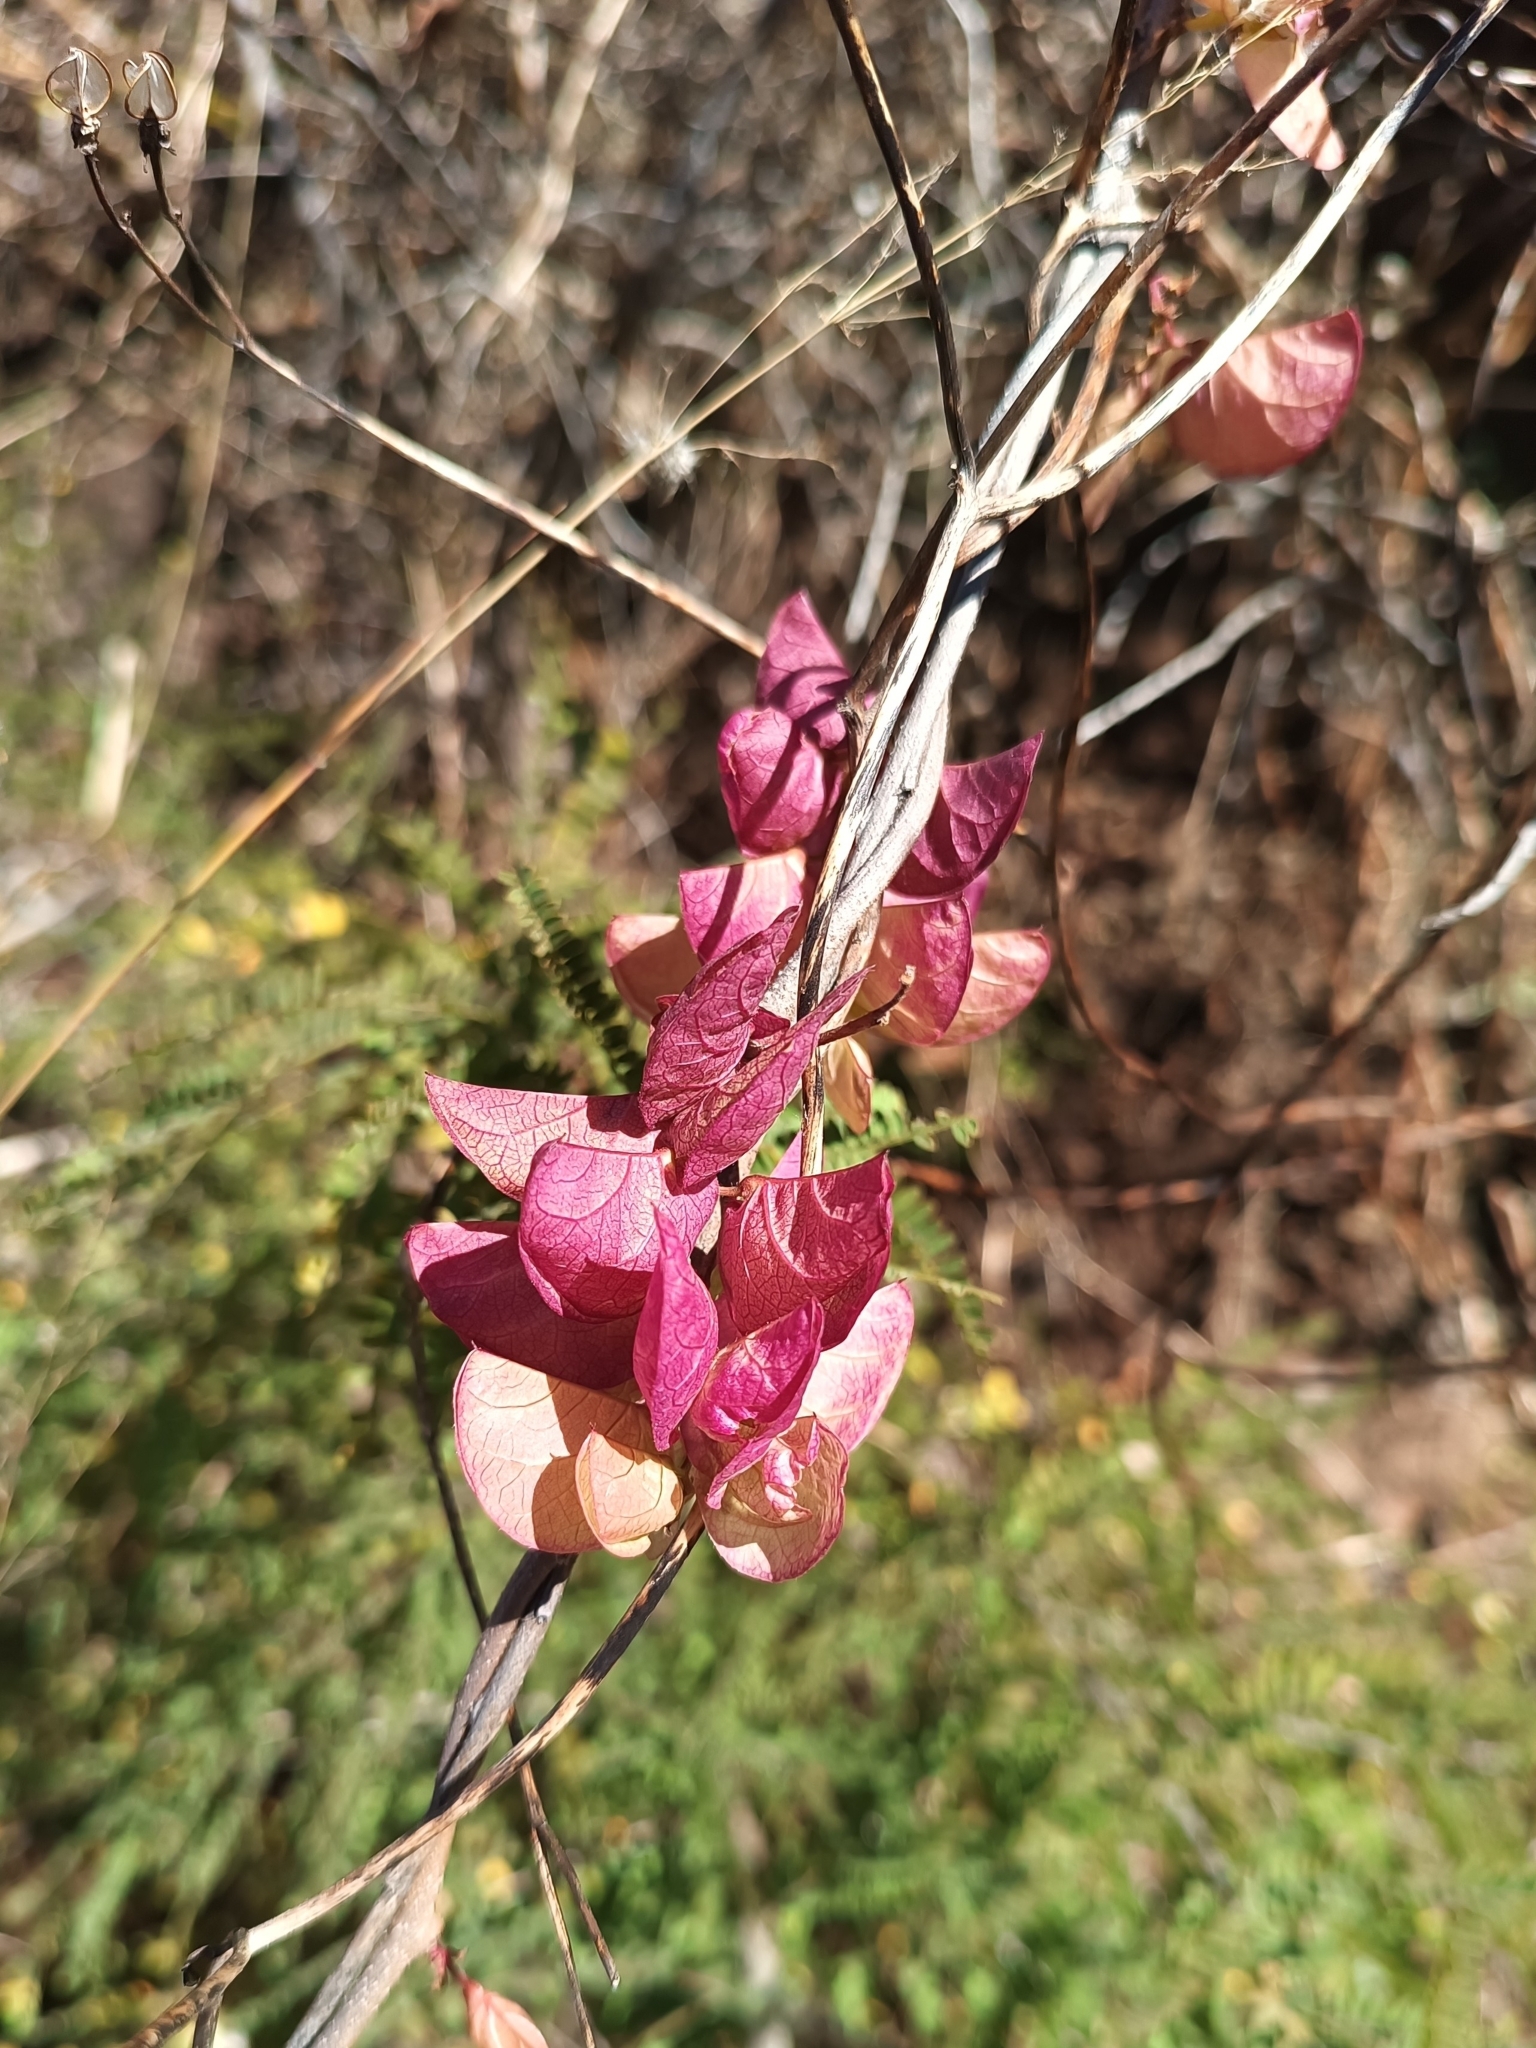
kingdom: Plantae
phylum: Tracheophyta
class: Magnoliopsida
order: Solanales
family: Convolvulaceae
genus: Ipomoea
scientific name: Ipomoea bracteata
